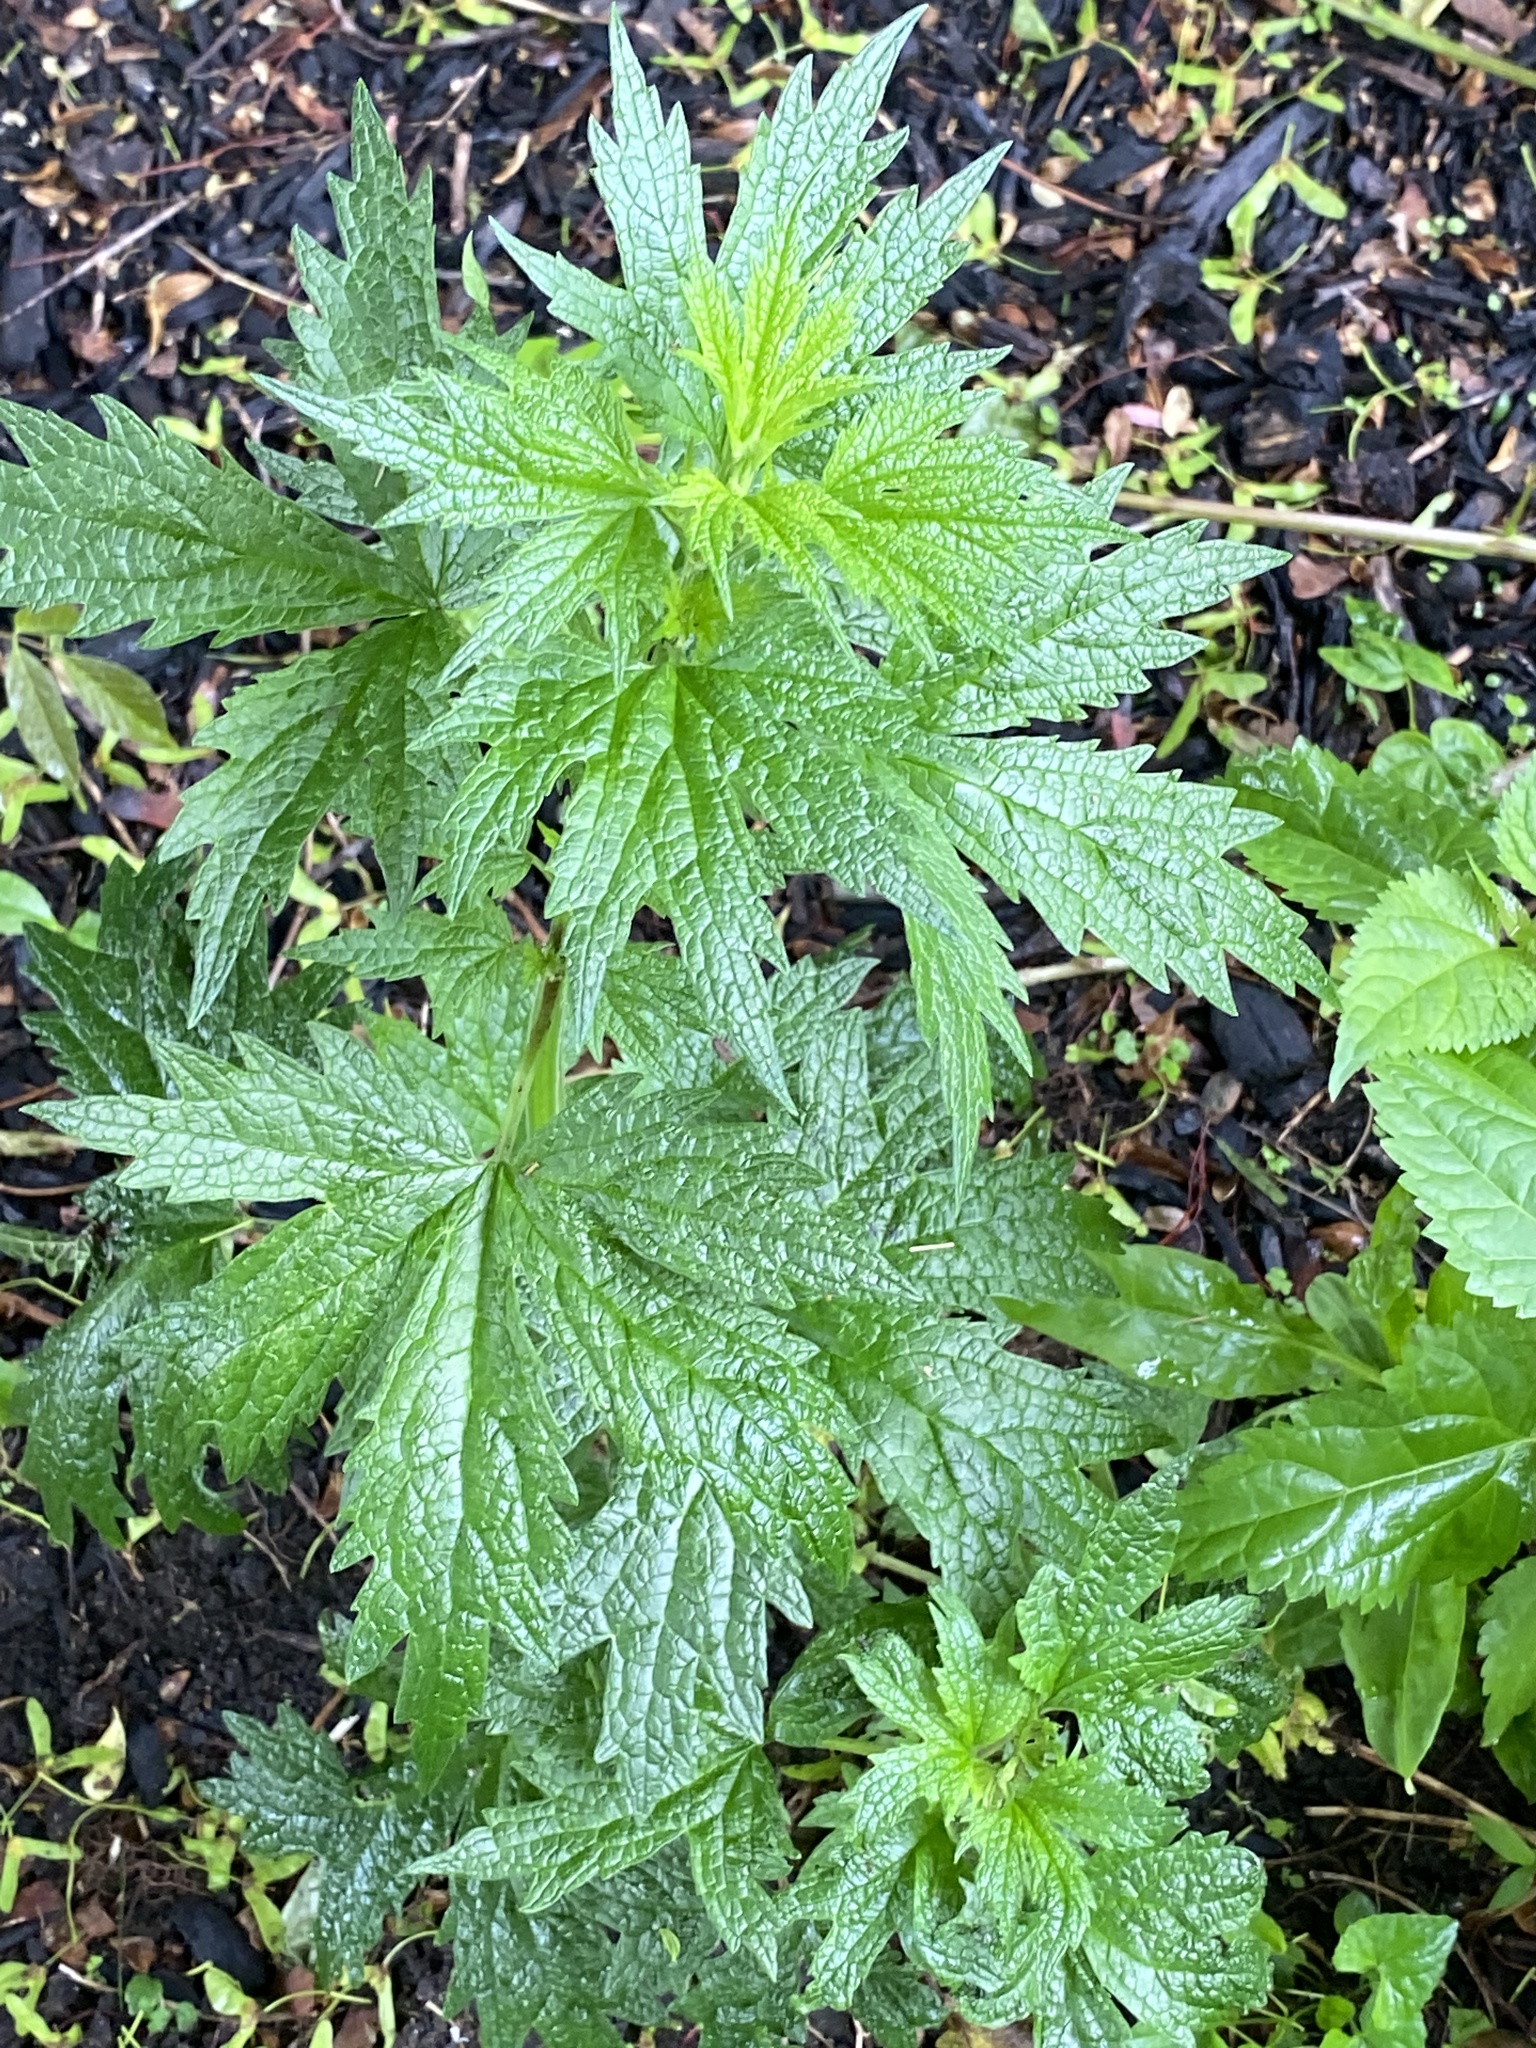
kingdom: Plantae
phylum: Tracheophyta
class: Magnoliopsida
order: Lamiales
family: Lamiaceae
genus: Leonurus
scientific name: Leonurus cardiaca
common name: Motherwort
